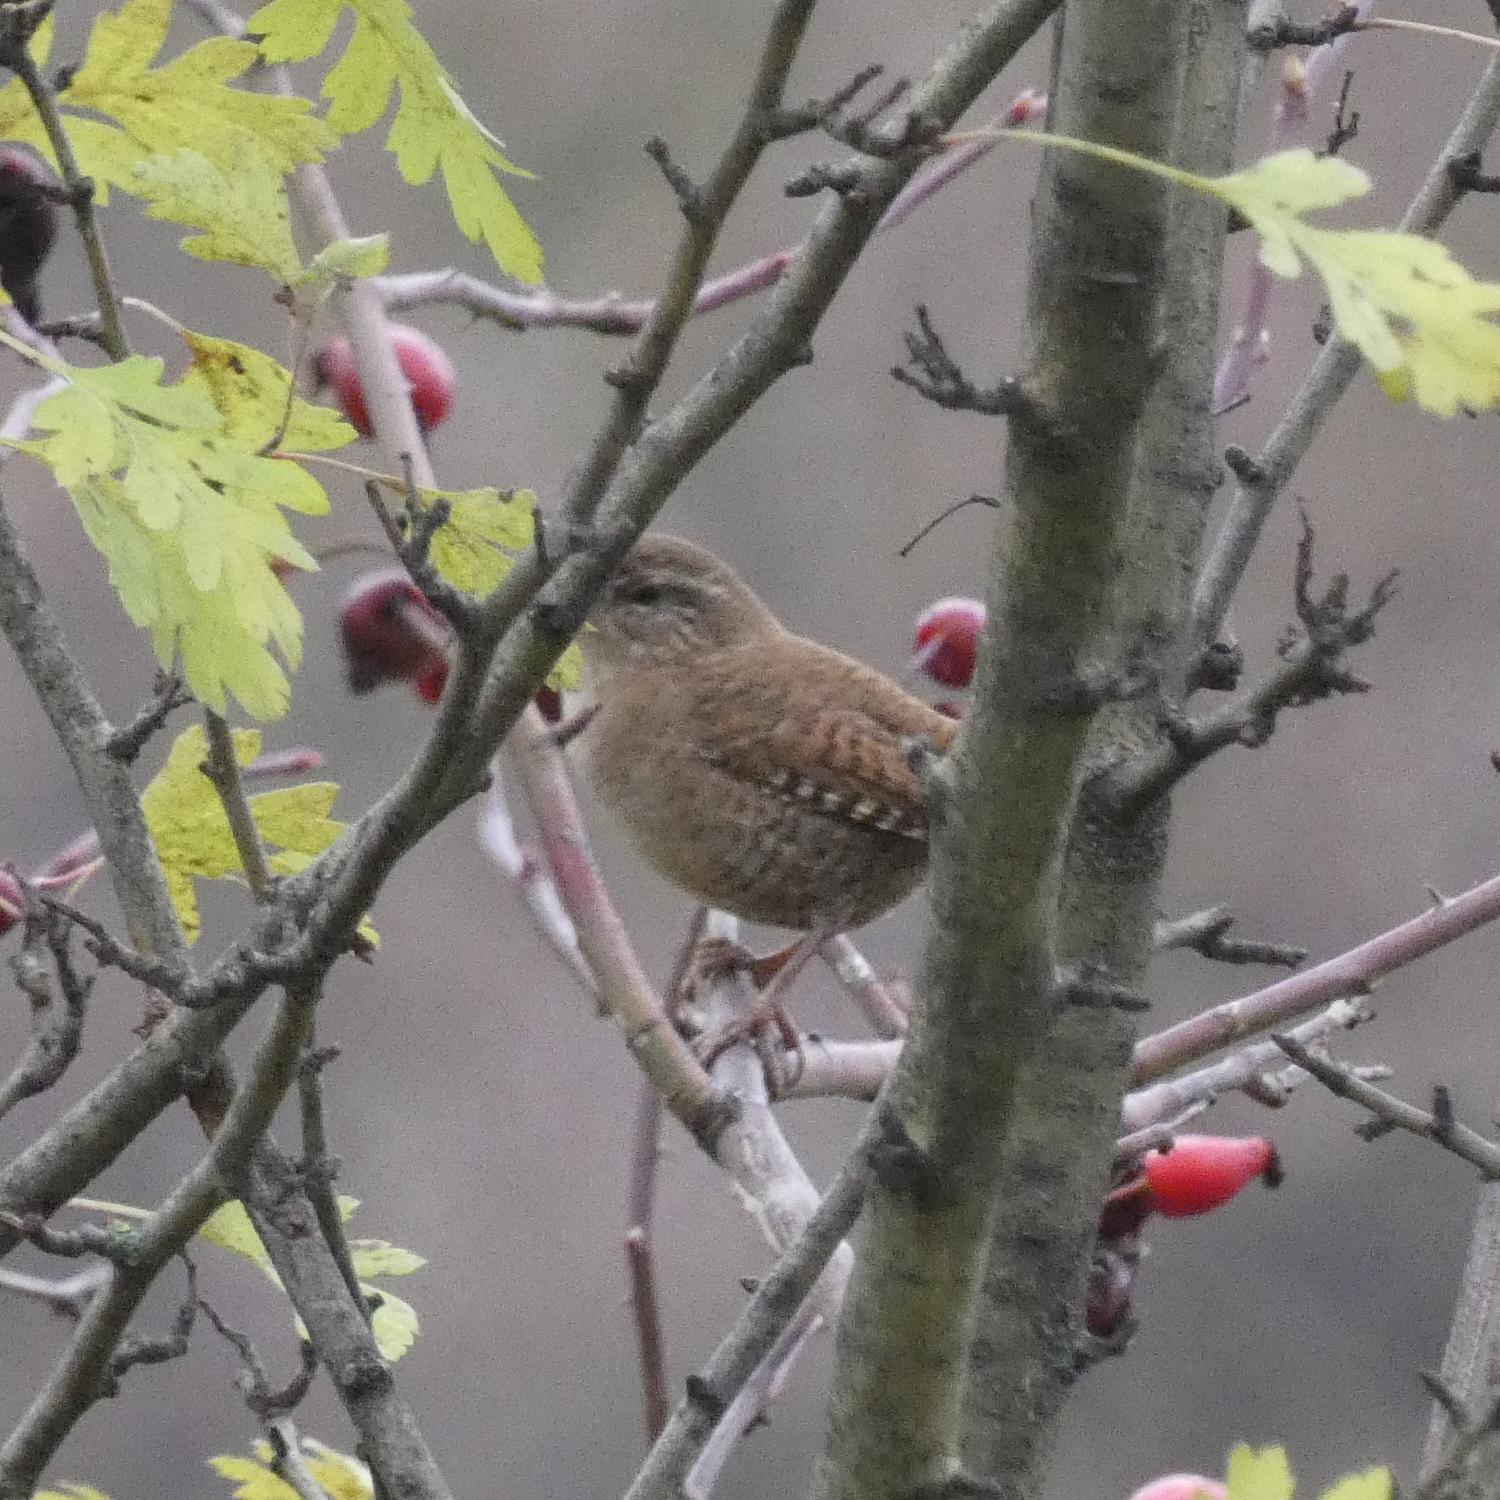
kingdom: Animalia
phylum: Chordata
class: Aves
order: Passeriformes
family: Troglodytidae
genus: Troglodytes
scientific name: Troglodytes troglodytes
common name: Eurasian wren
